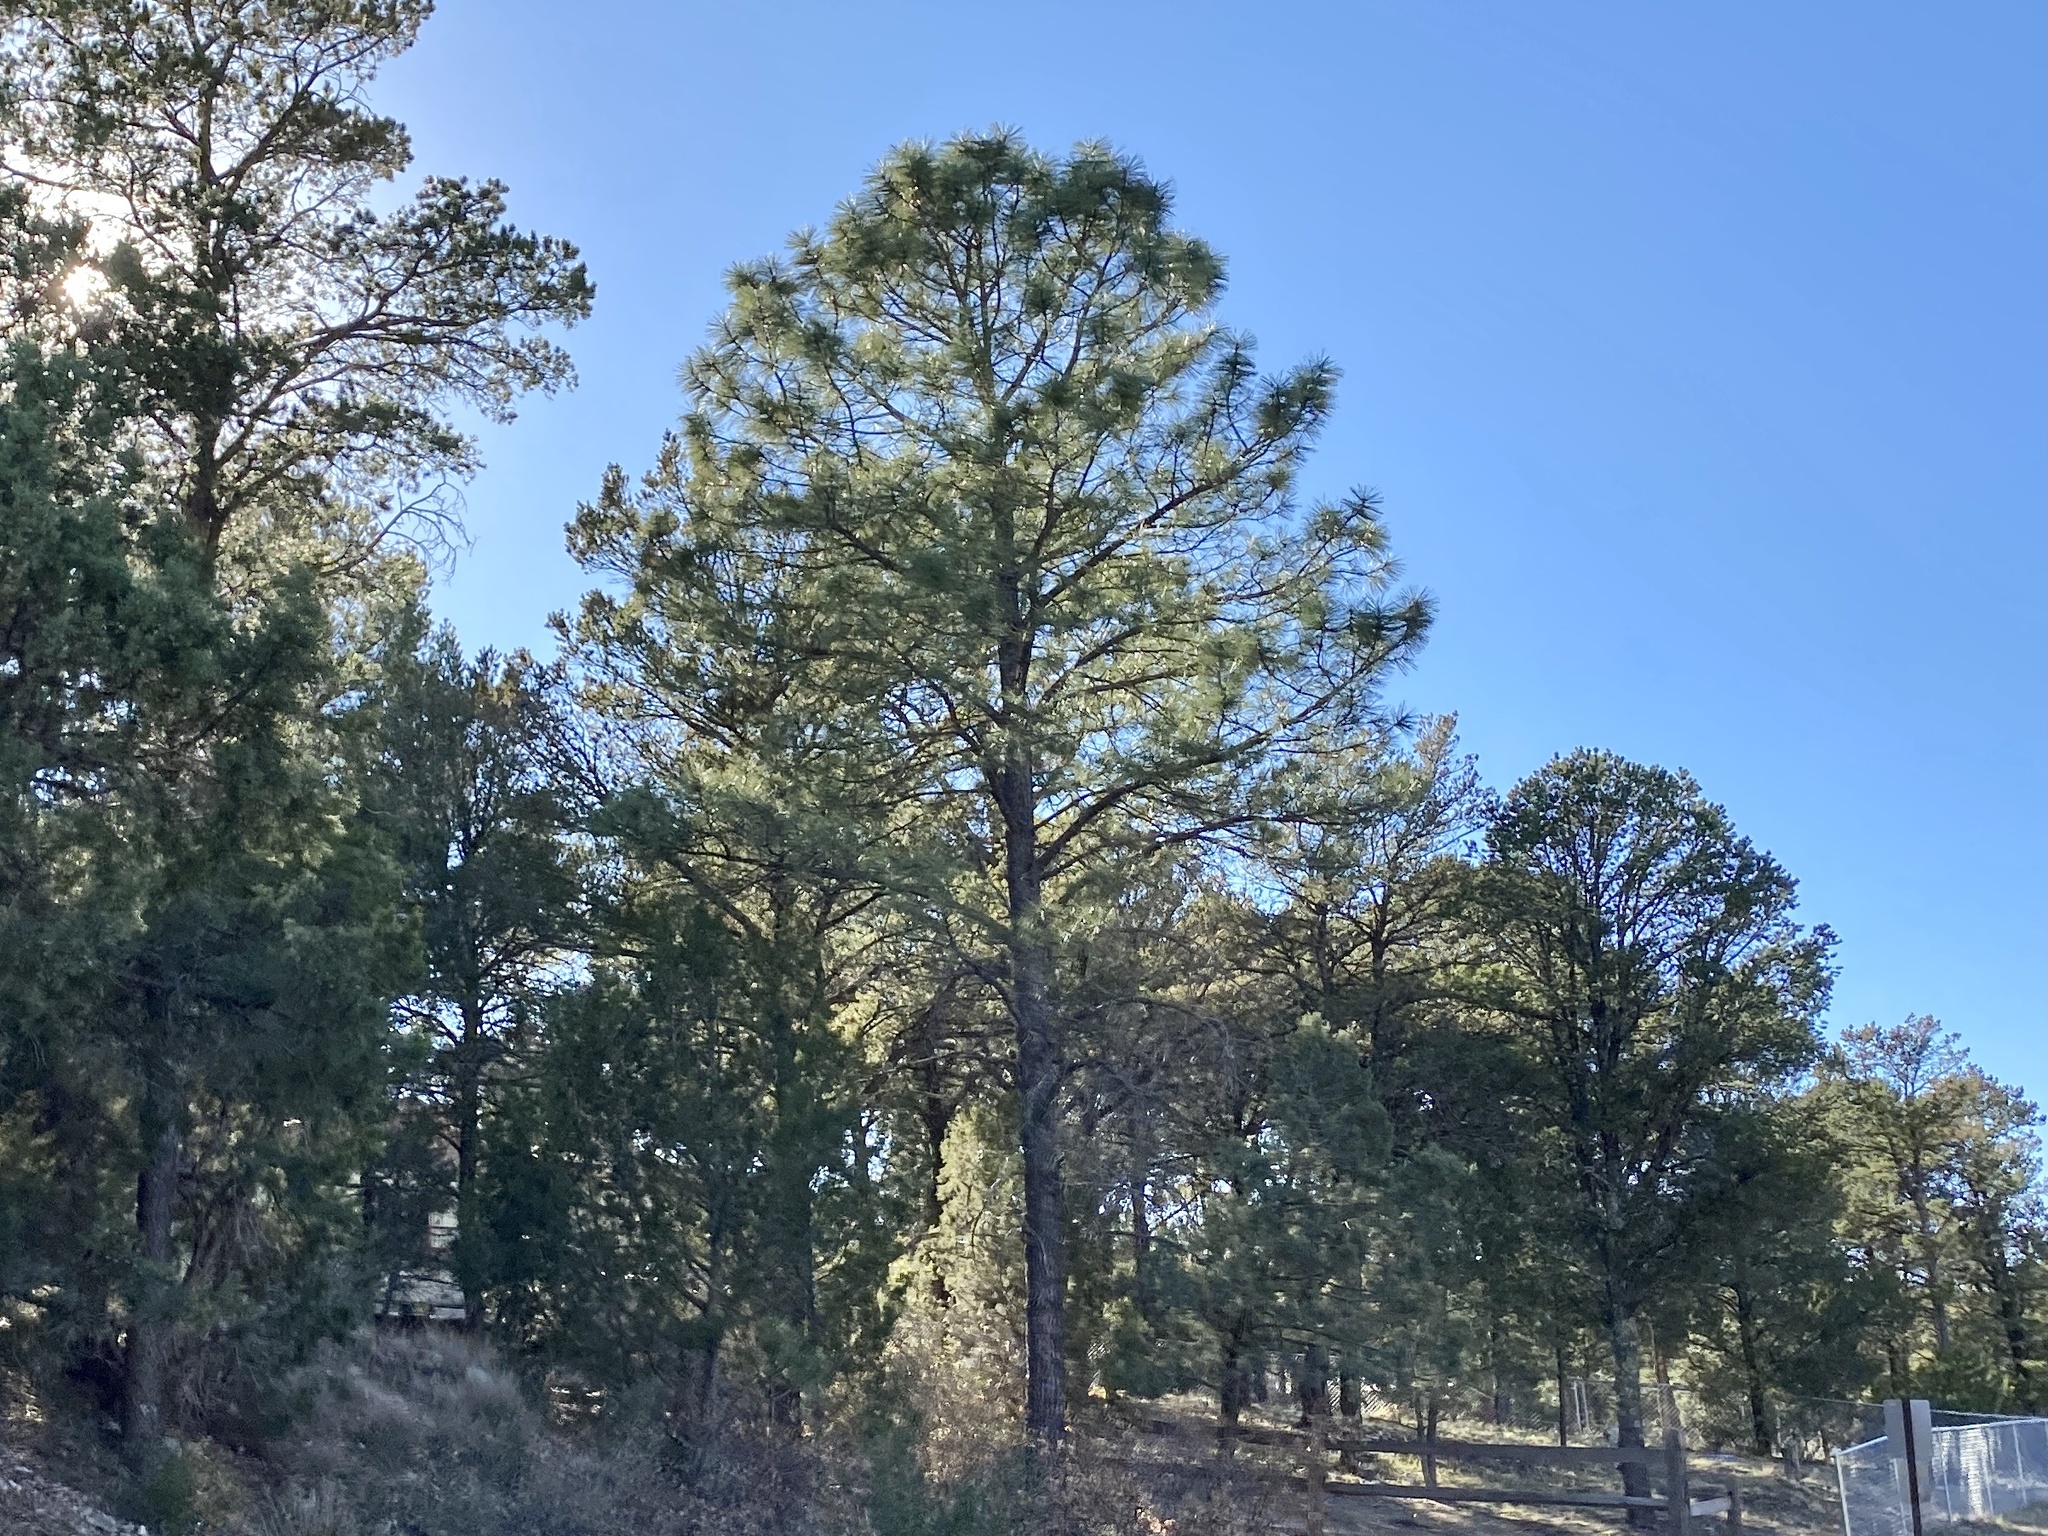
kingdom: Plantae
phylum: Tracheophyta
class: Pinopsida
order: Pinales
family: Pinaceae
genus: Pinus
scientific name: Pinus ponderosa
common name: Western yellow-pine
